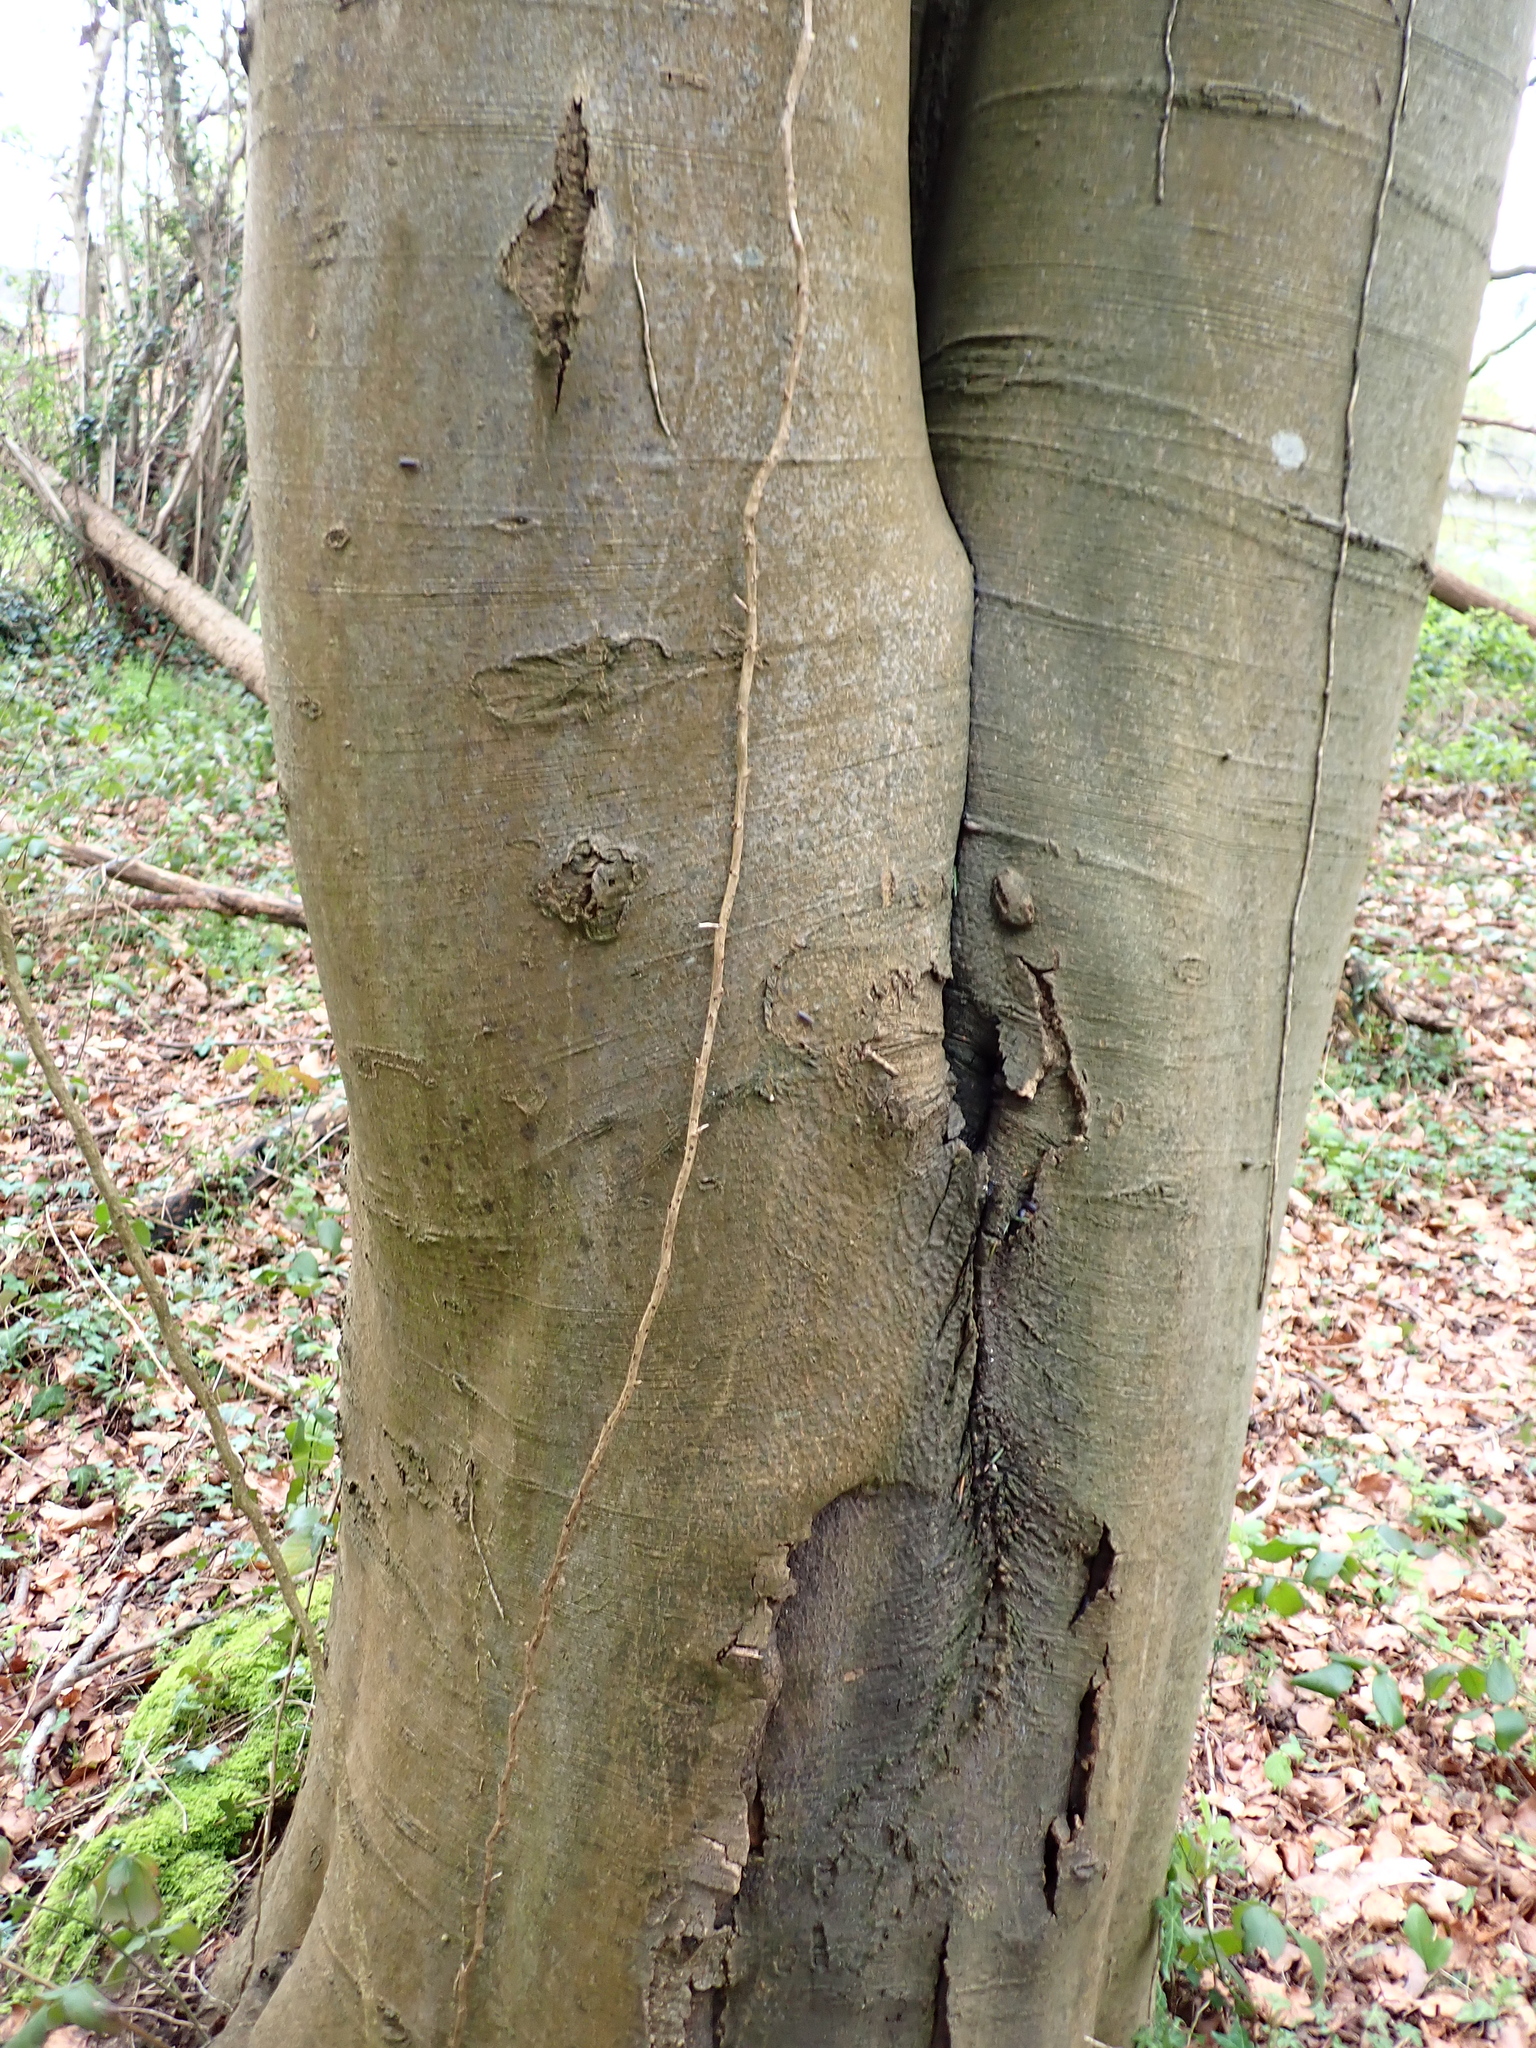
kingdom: Plantae
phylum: Tracheophyta
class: Magnoliopsida
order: Fagales
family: Fagaceae
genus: Fagus
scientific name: Fagus sylvatica
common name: Beech
